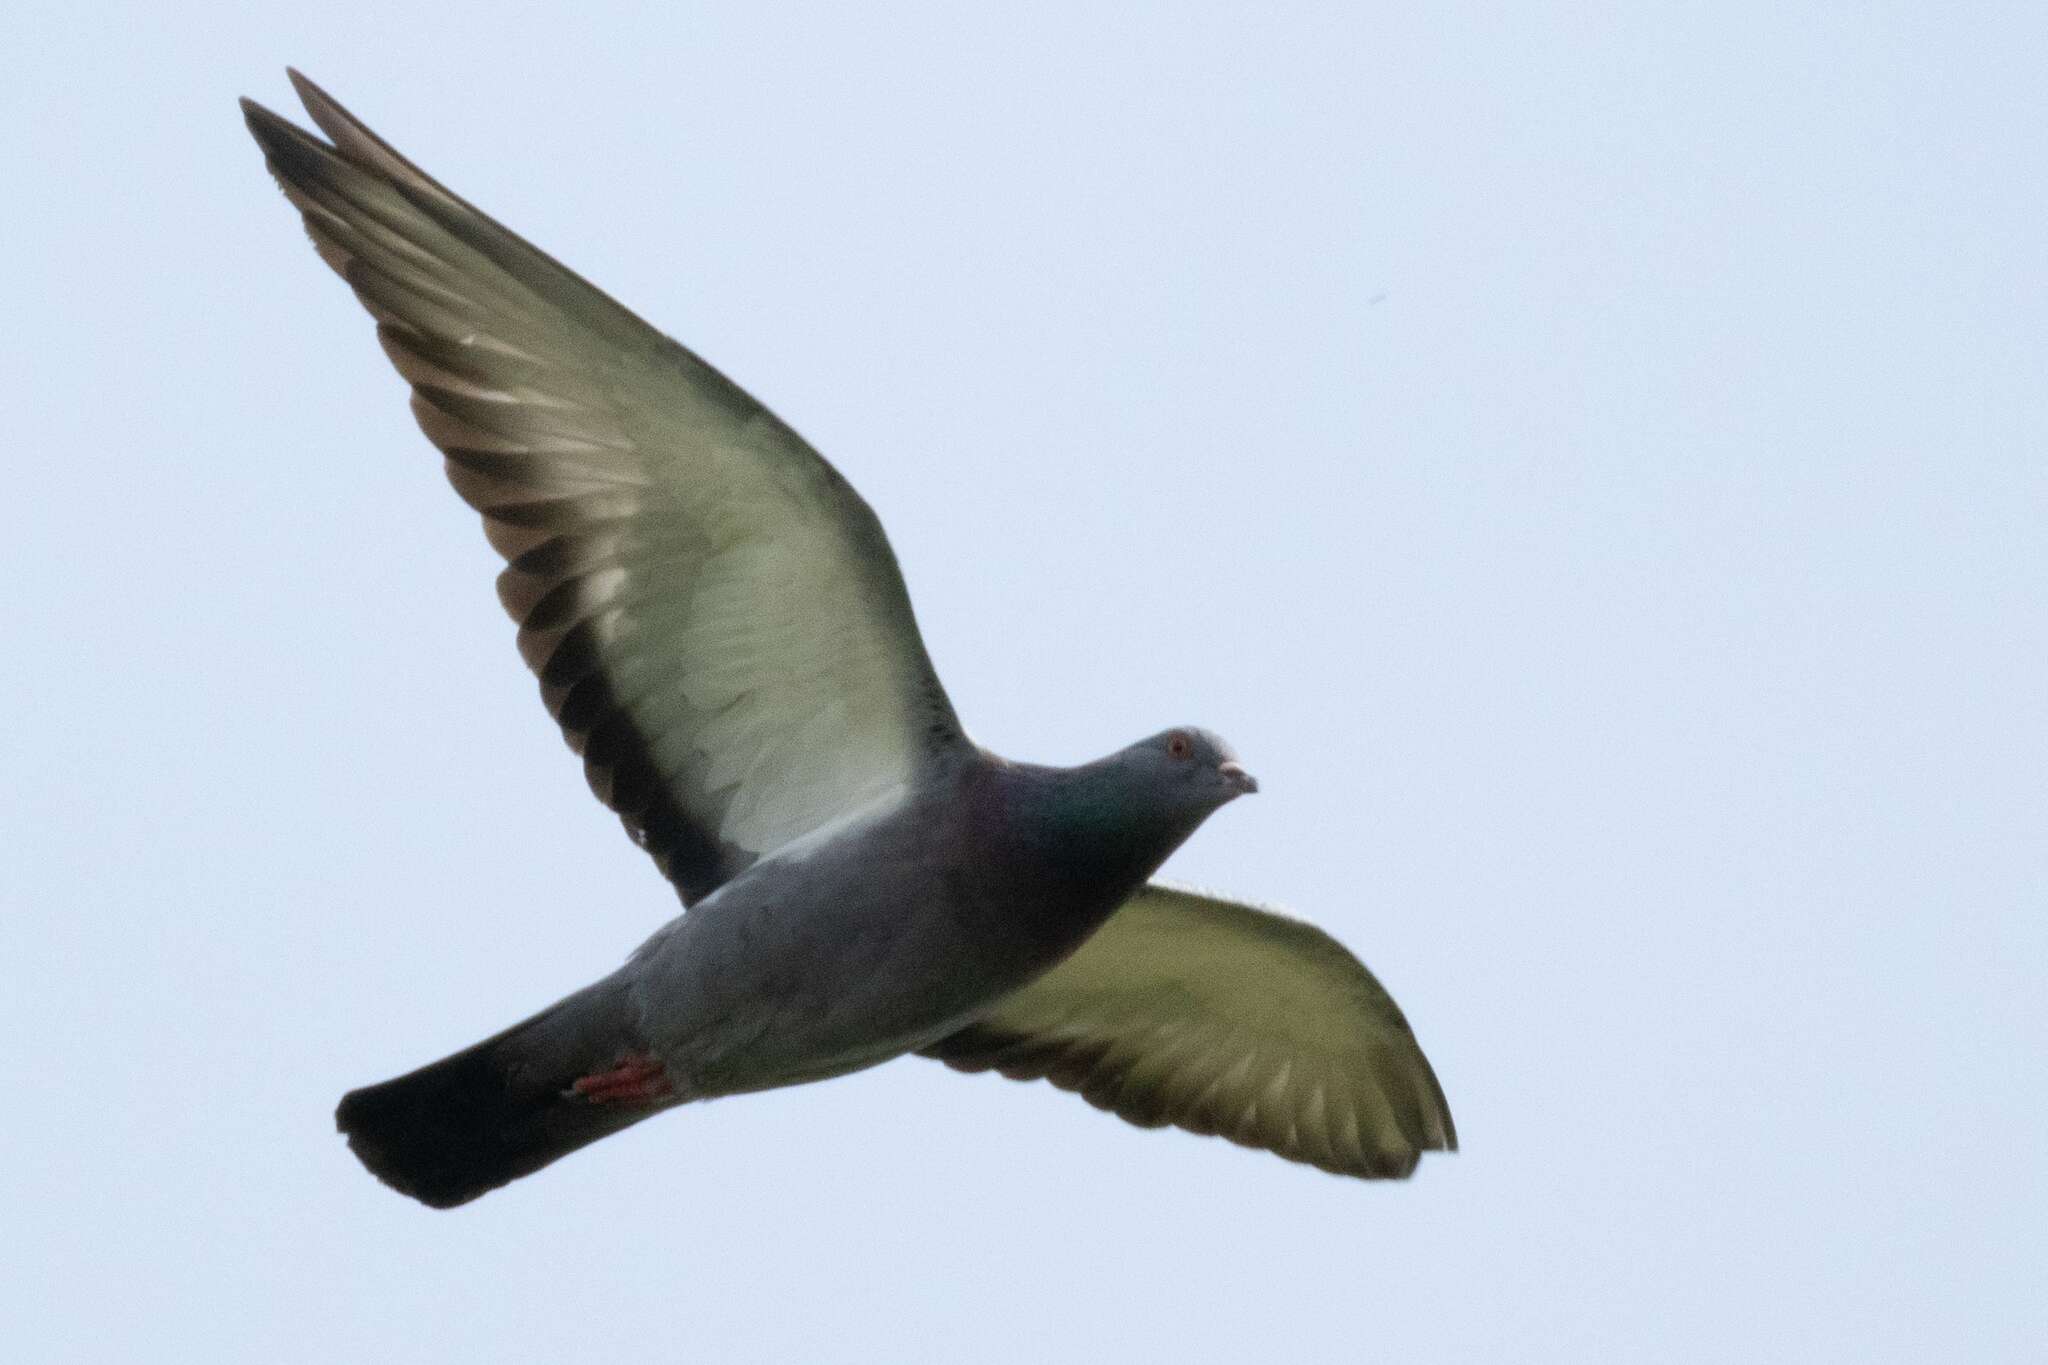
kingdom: Animalia
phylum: Chordata
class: Aves
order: Columbiformes
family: Columbidae
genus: Columba
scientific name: Columba livia
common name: Rock pigeon
